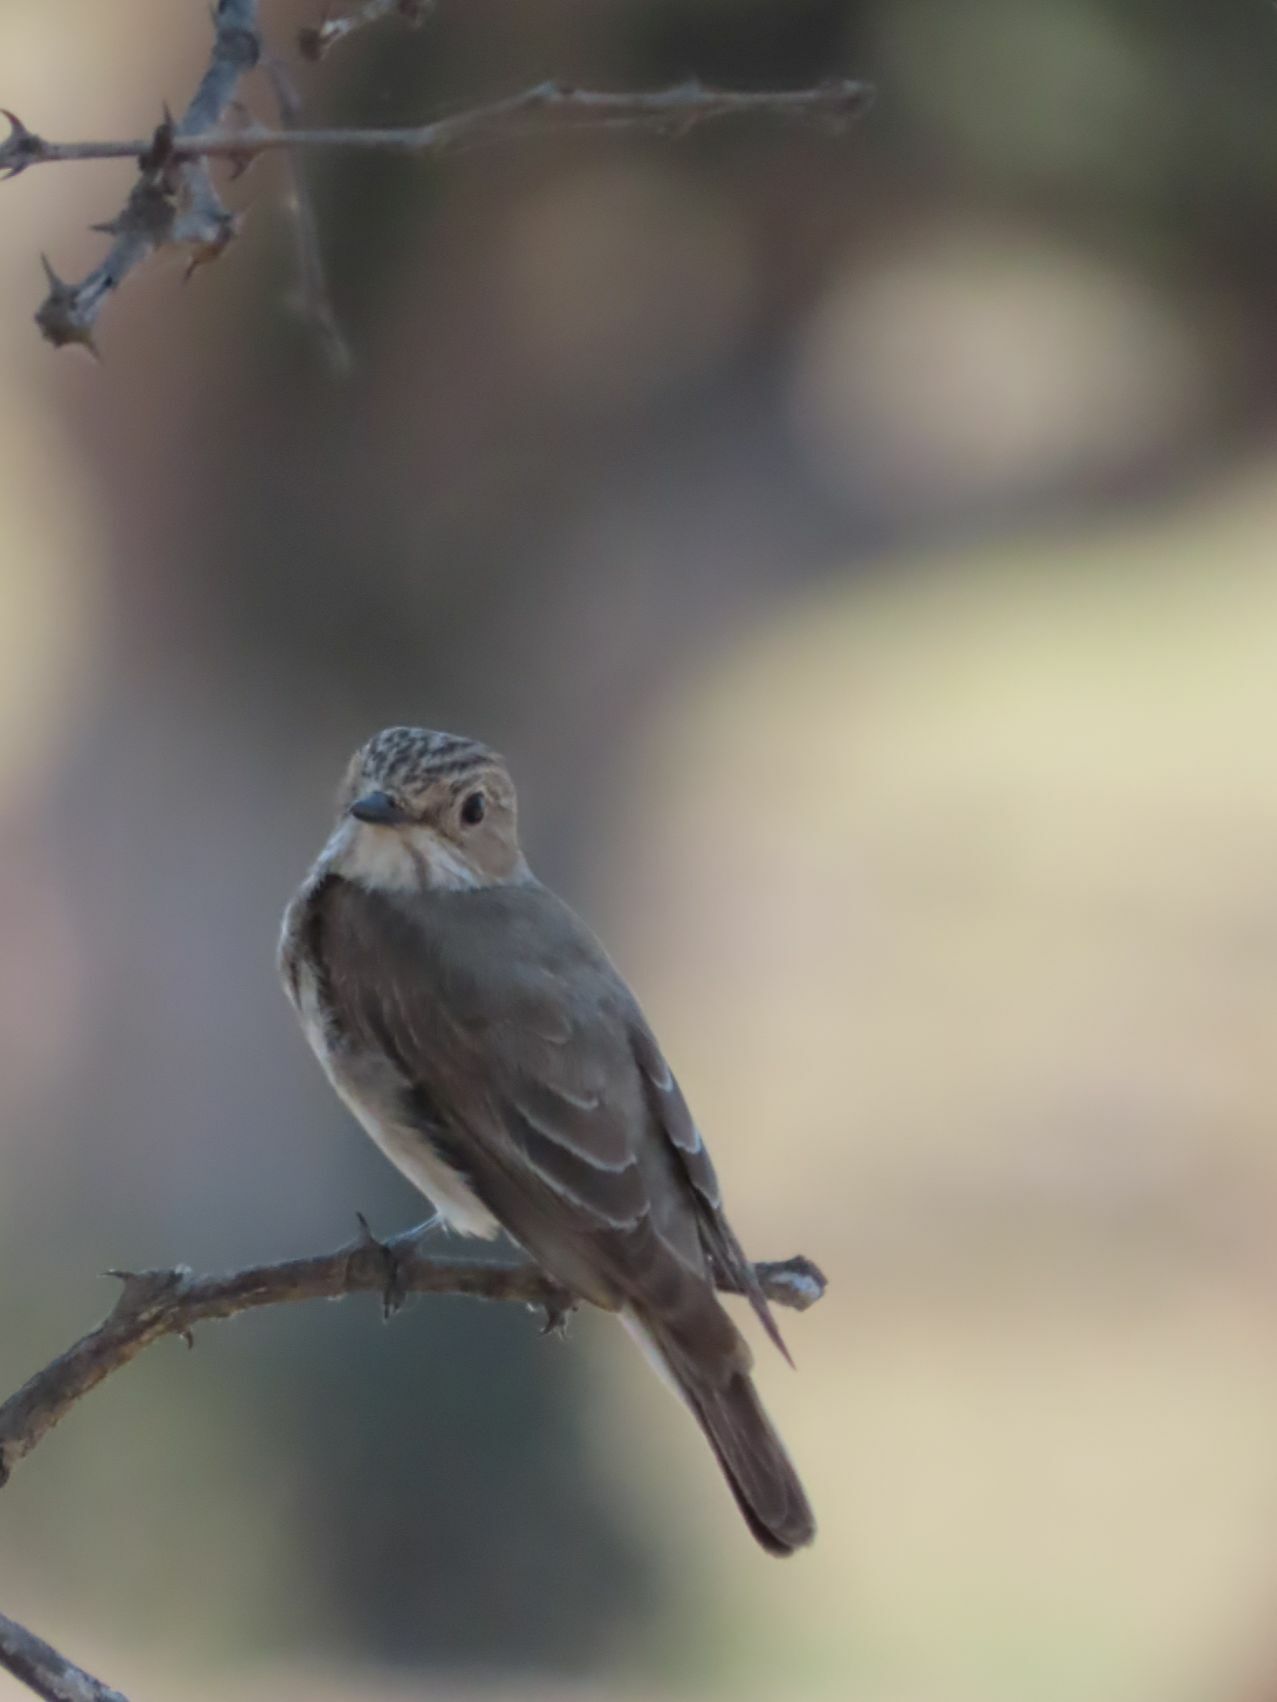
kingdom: Animalia
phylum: Chordata
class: Aves
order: Passeriformes
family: Muscicapidae
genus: Muscicapa
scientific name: Muscicapa striata
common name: Spotted flycatcher
